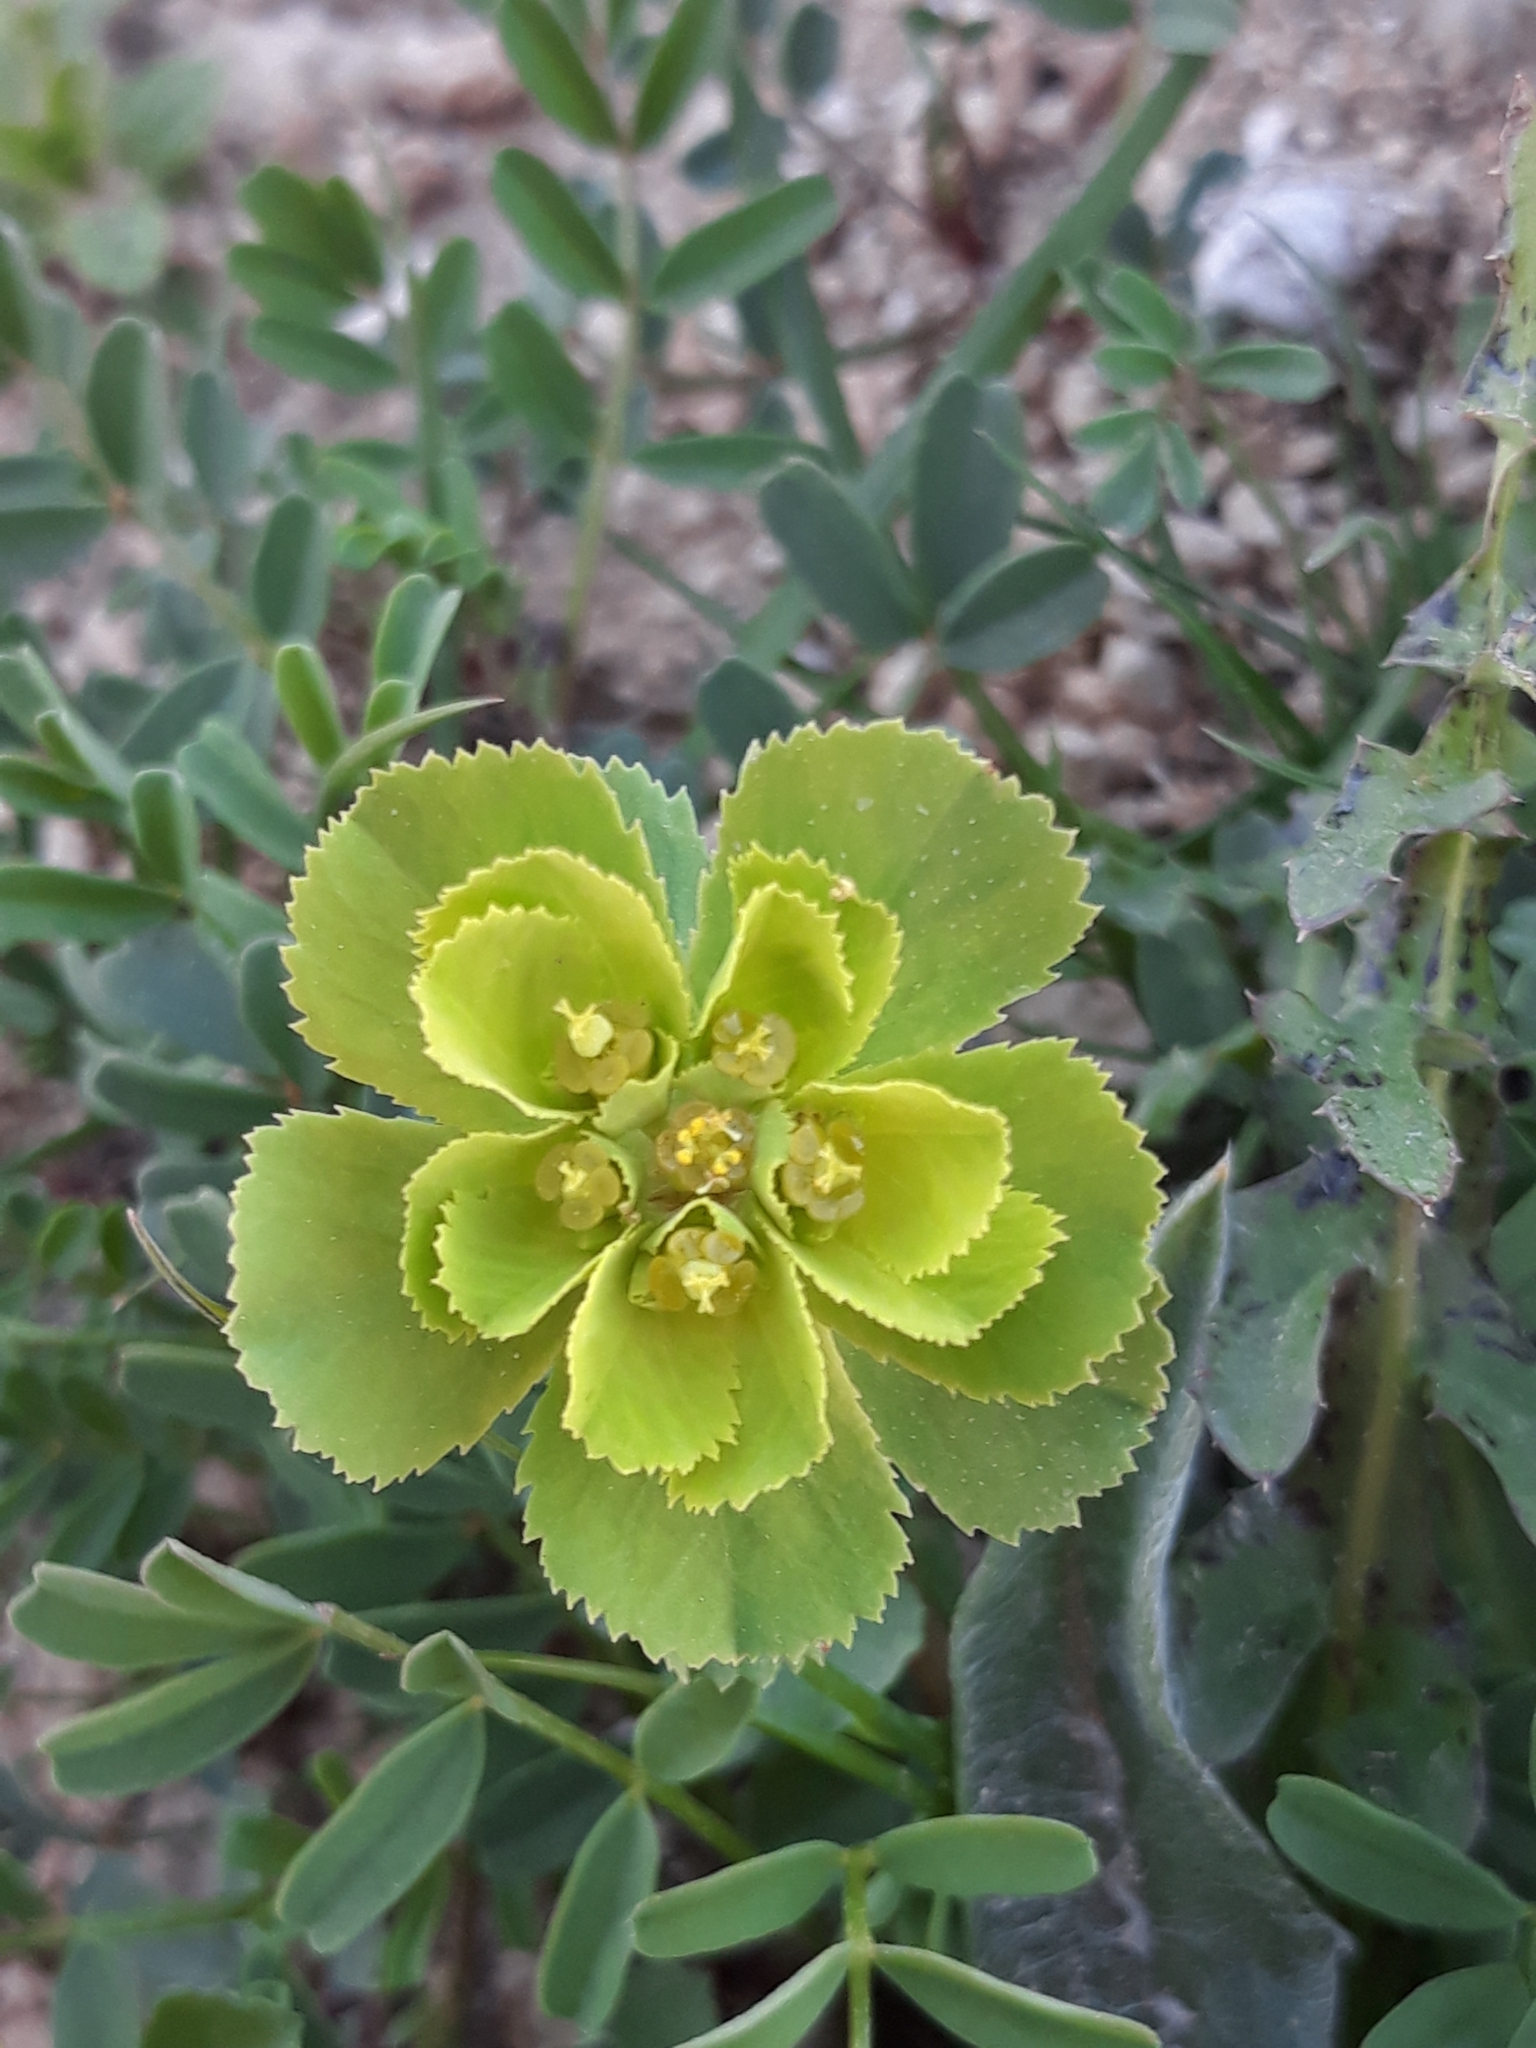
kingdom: Plantae
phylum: Tracheophyta
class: Magnoliopsida
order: Malpighiales
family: Euphorbiaceae
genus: Euphorbia
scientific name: Euphorbia helioscopia
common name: Sun spurge
